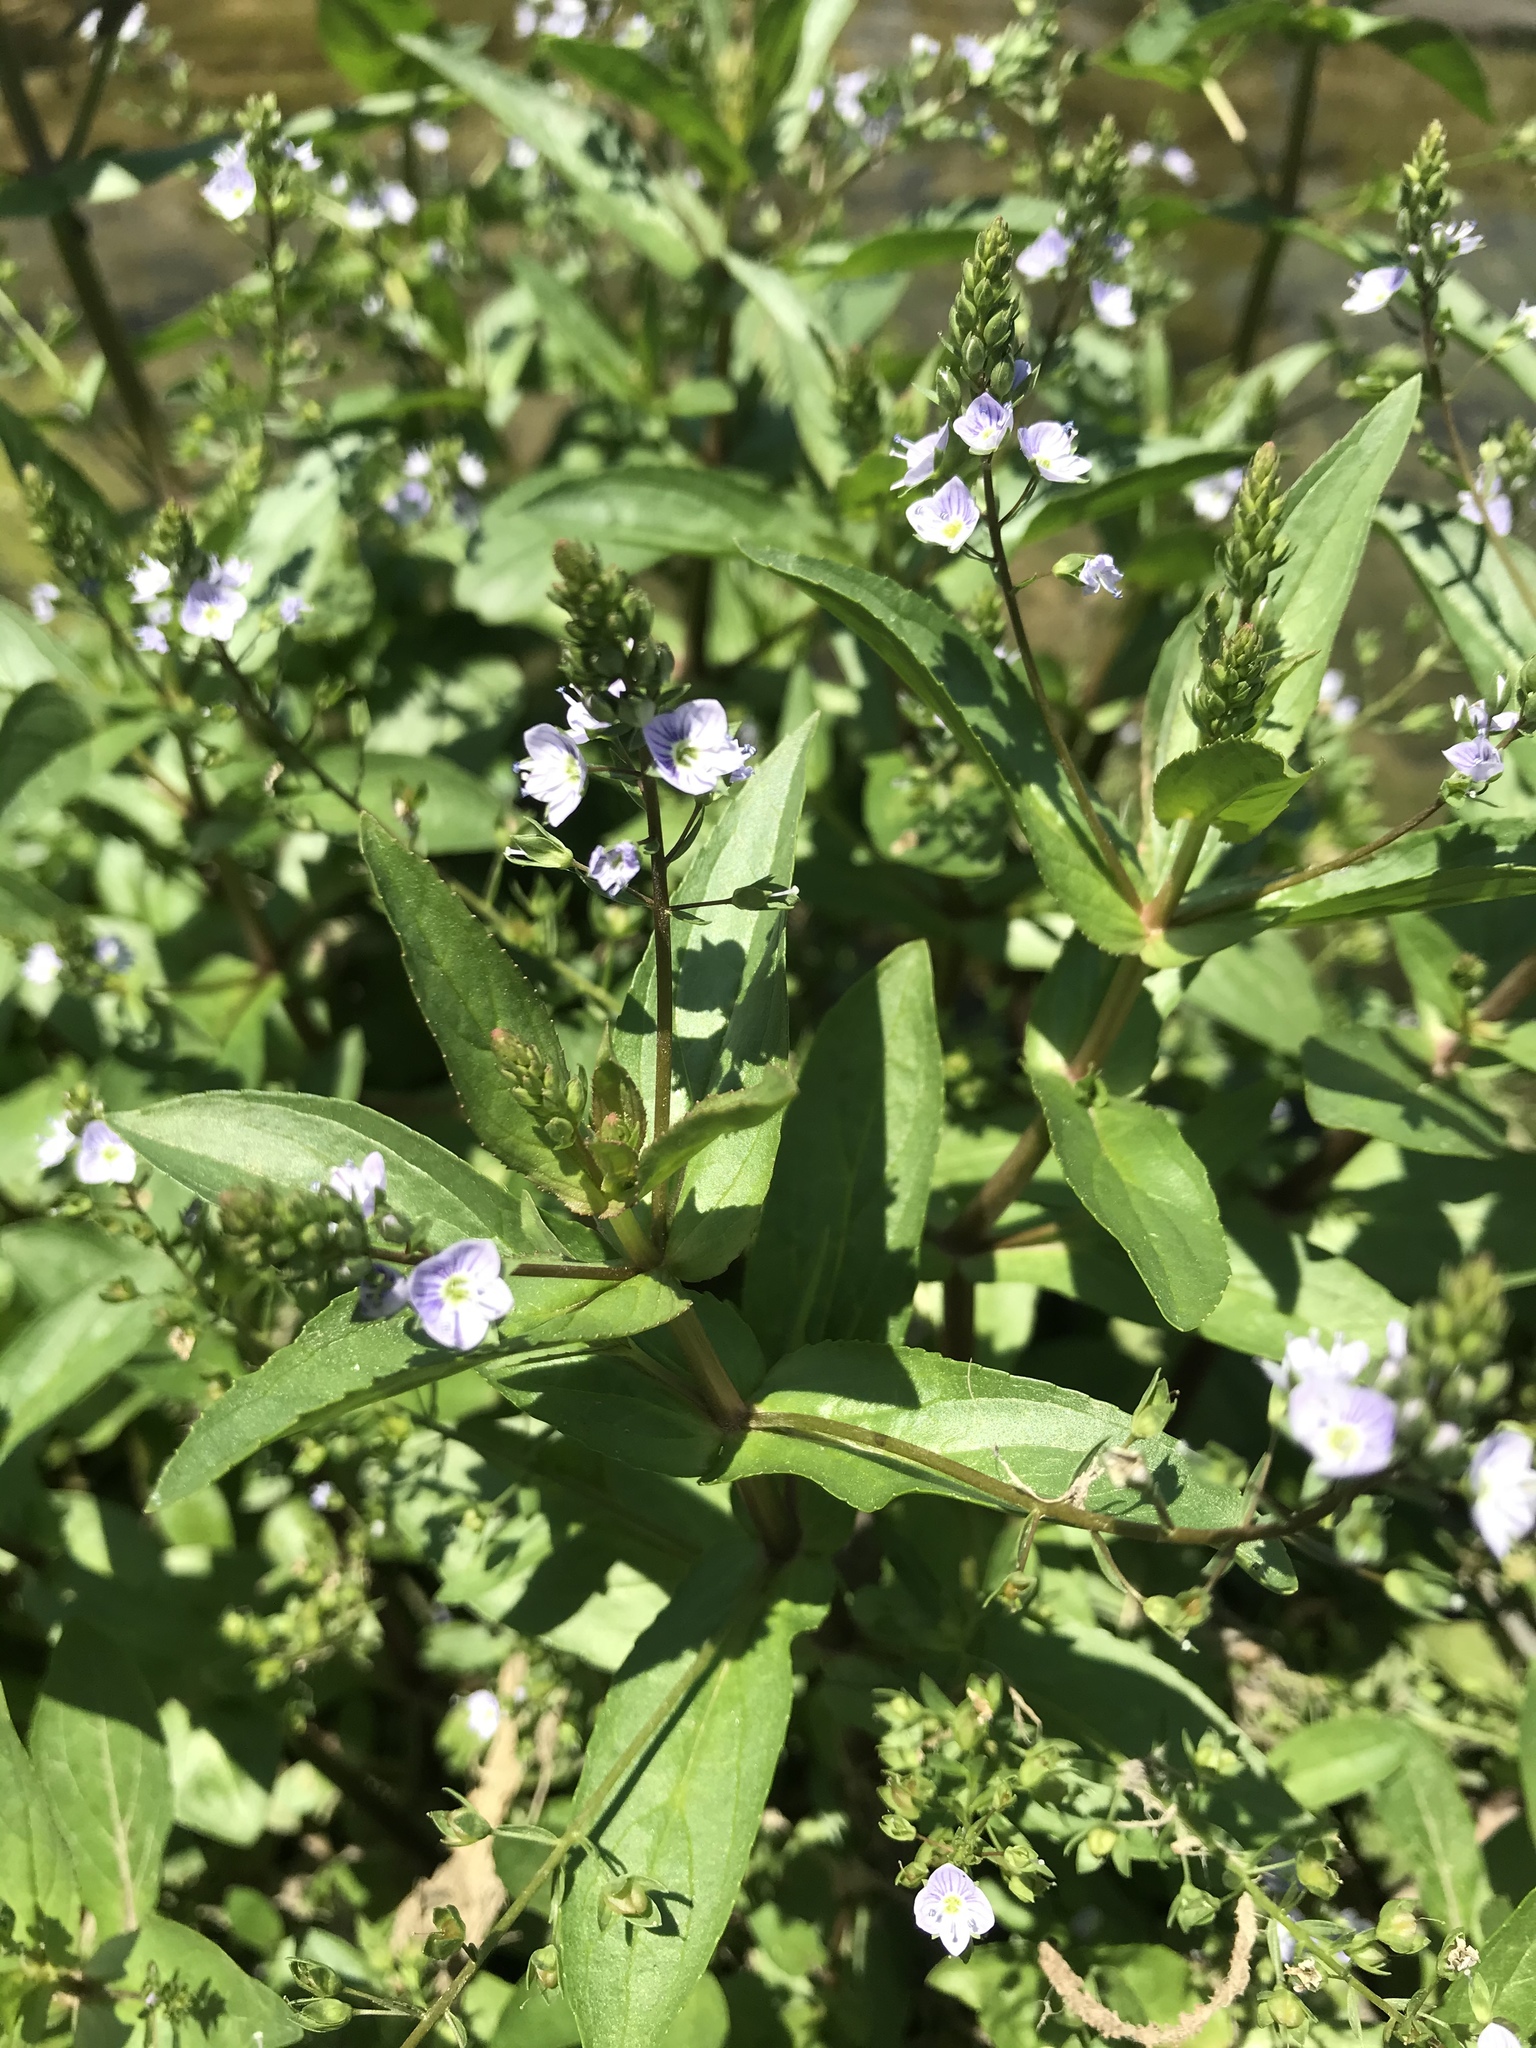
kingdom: Plantae
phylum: Tracheophyta
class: Magnoliopsida
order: Lamiales
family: Plantaginaceae
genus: Veronica
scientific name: Veronica anagallis-aquatica
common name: Water speedwell
